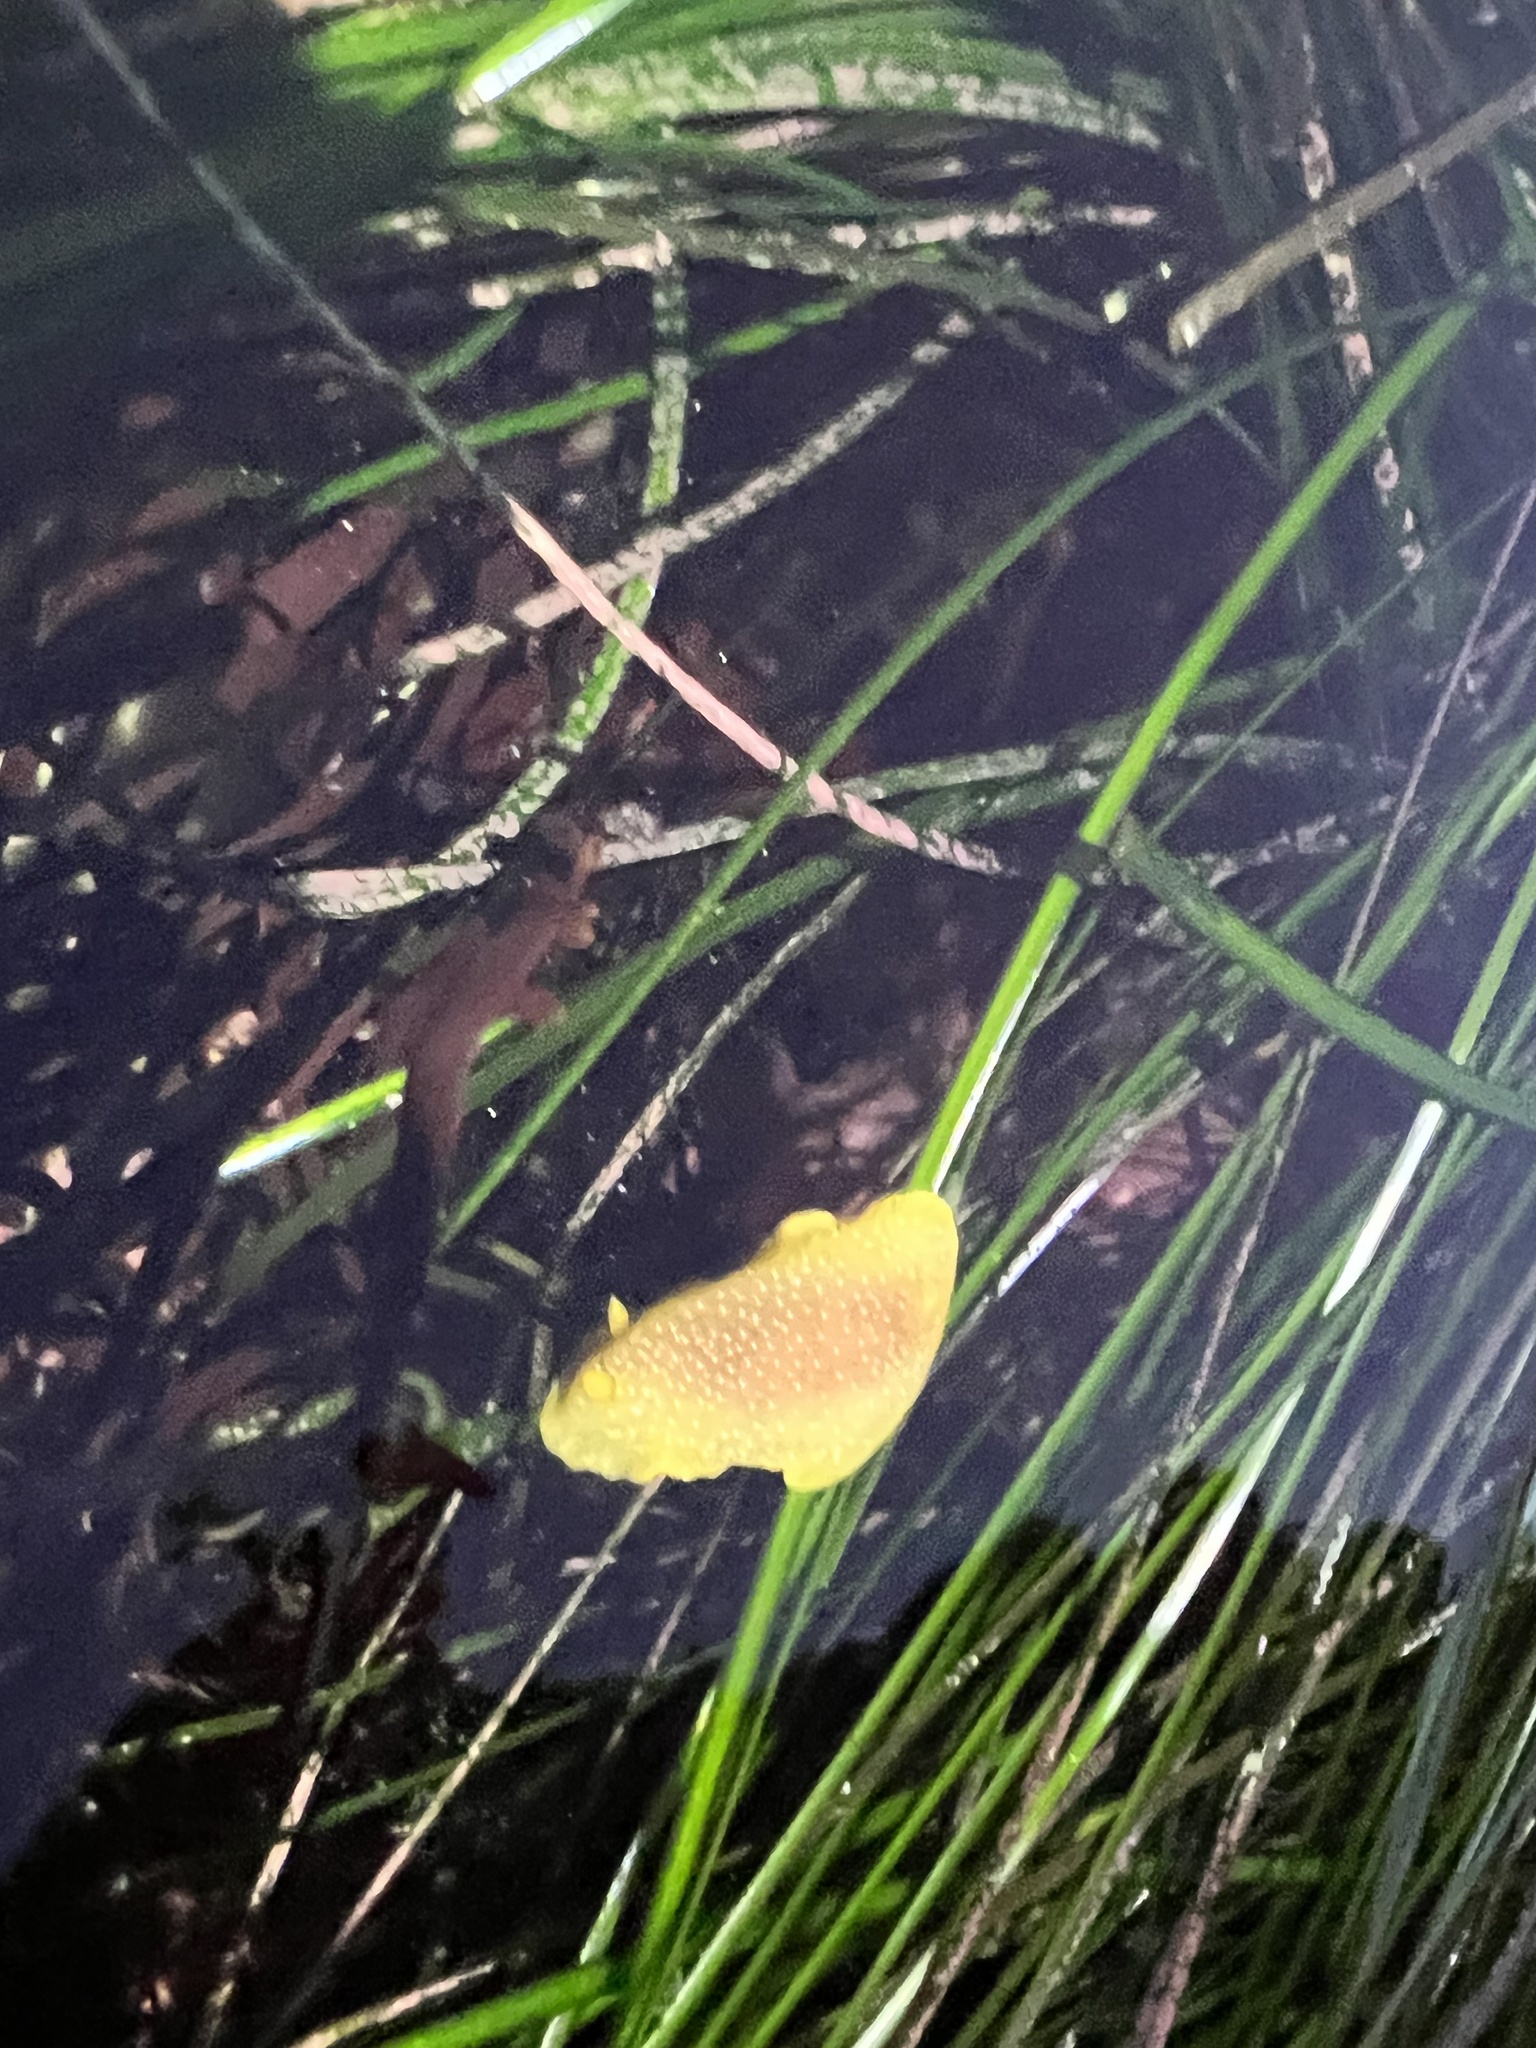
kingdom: Animalia
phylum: Mollusca
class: Gastropoda
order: Nudibranchia
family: Dendrodorididae
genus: Doriopsilla
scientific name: Doriopsilla fulva
